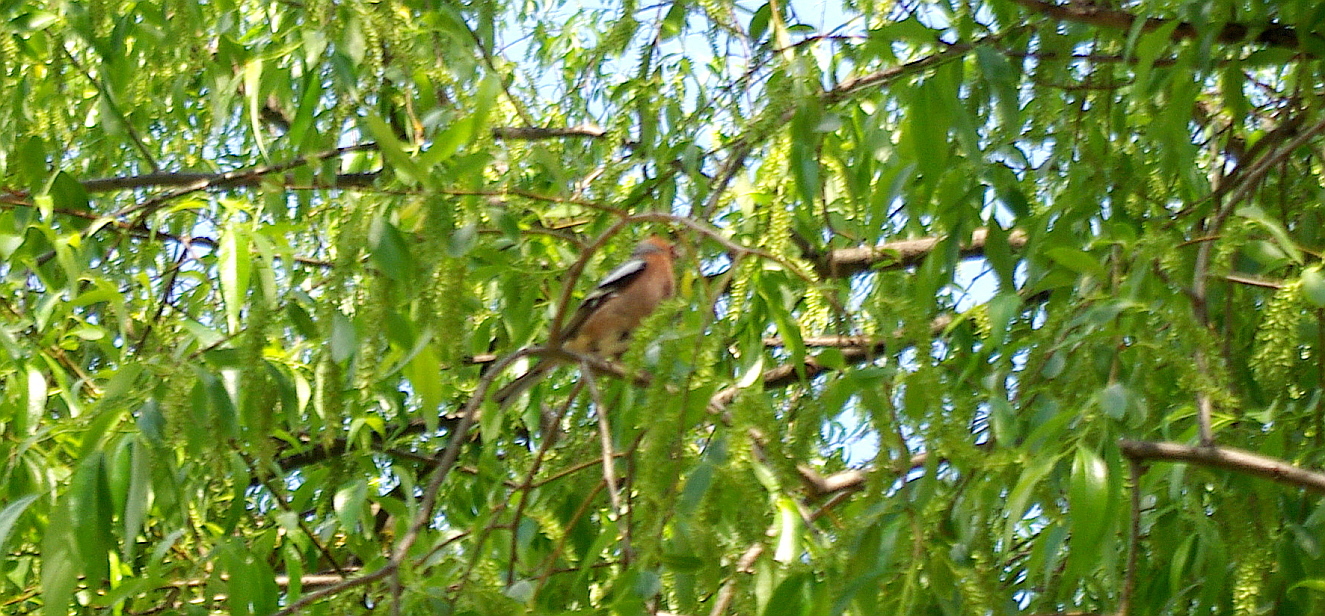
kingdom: Animalia
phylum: Chordata
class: Aves
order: Passeriformes
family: Fringillidae
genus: Fringilla
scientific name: Fringilla coelebs
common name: Common chaffinch
